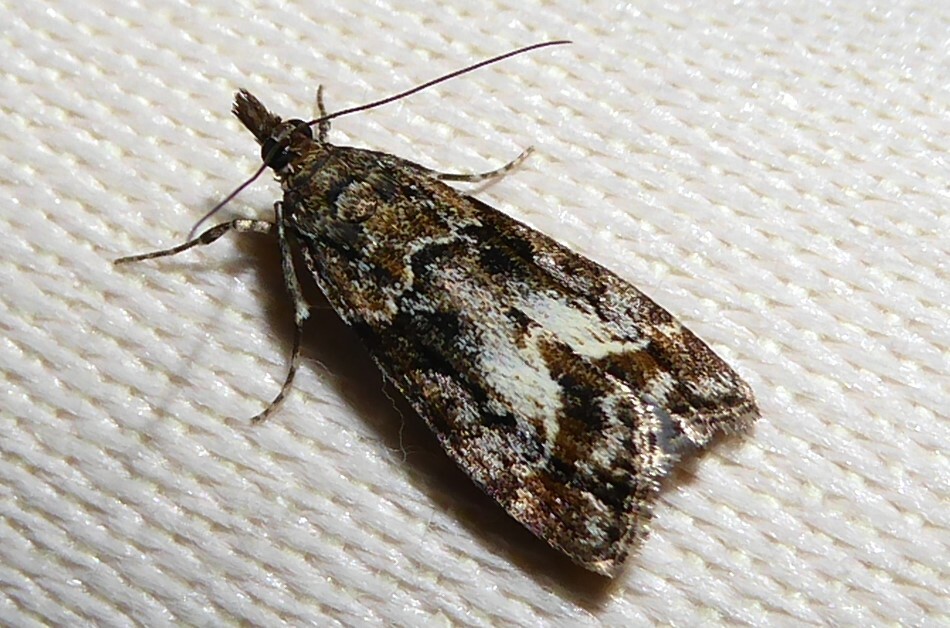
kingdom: Animalia
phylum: Arthropoda
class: Insecta
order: Lepidoptera
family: Crambidae
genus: Eudonia
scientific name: Eudonia legnota
